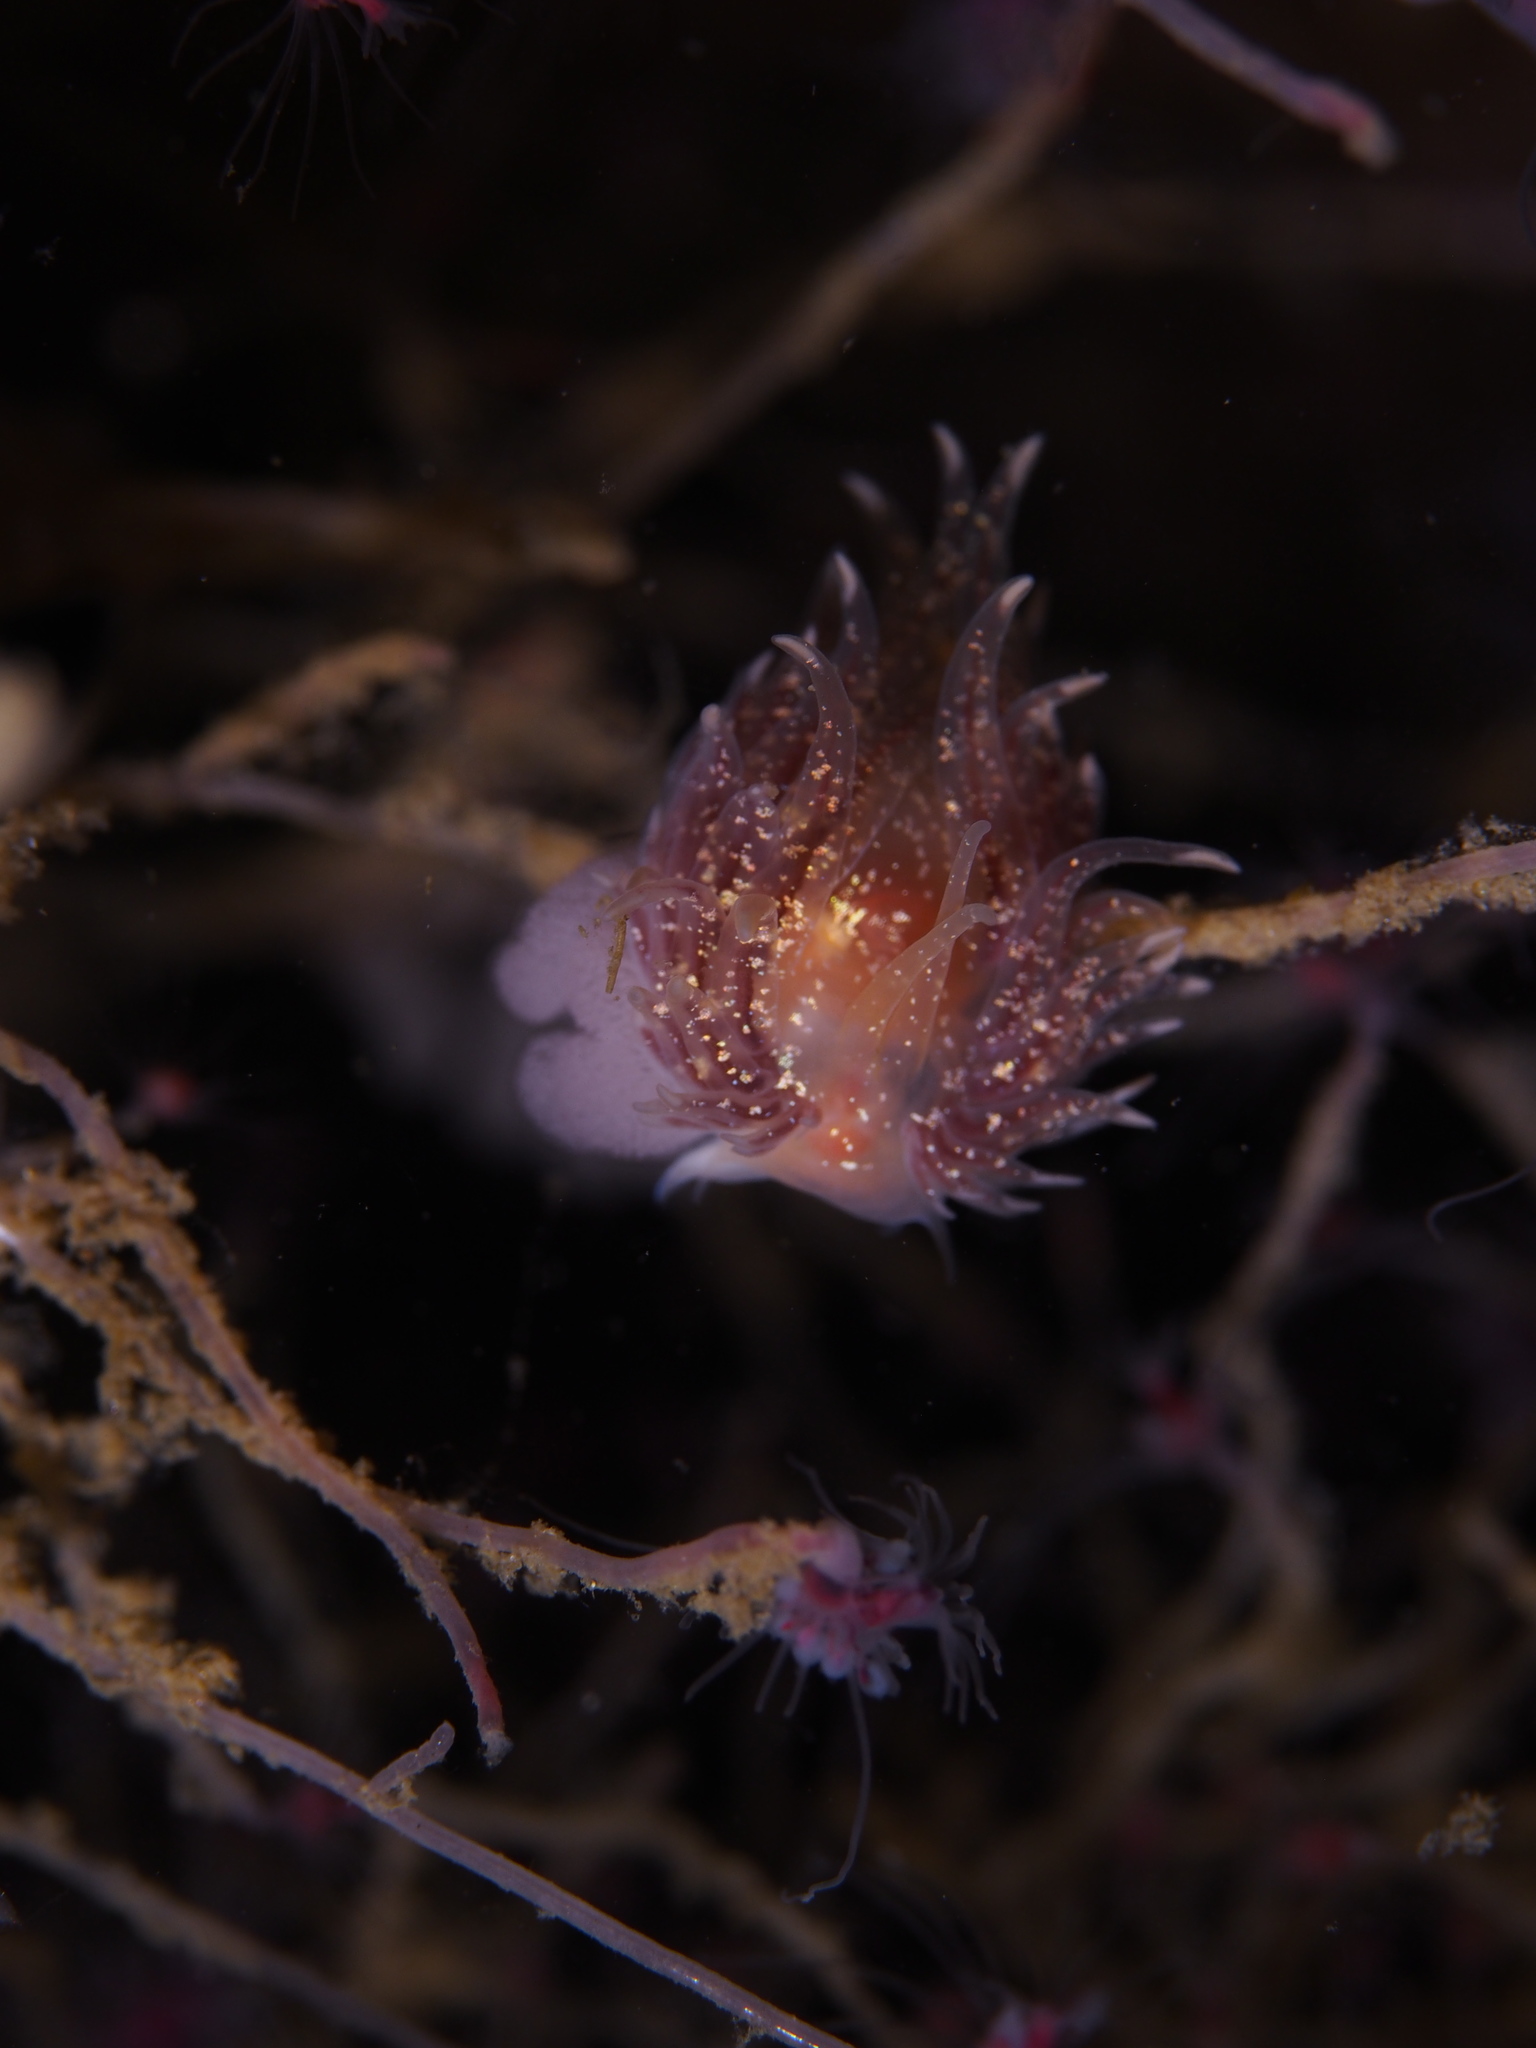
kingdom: Animalia
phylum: Mollusca
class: Gastropoda
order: Nudibranchia
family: Cumanotidae
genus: Cumanotus
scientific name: Cumanotus beaumonti
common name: Polyp aeolis
